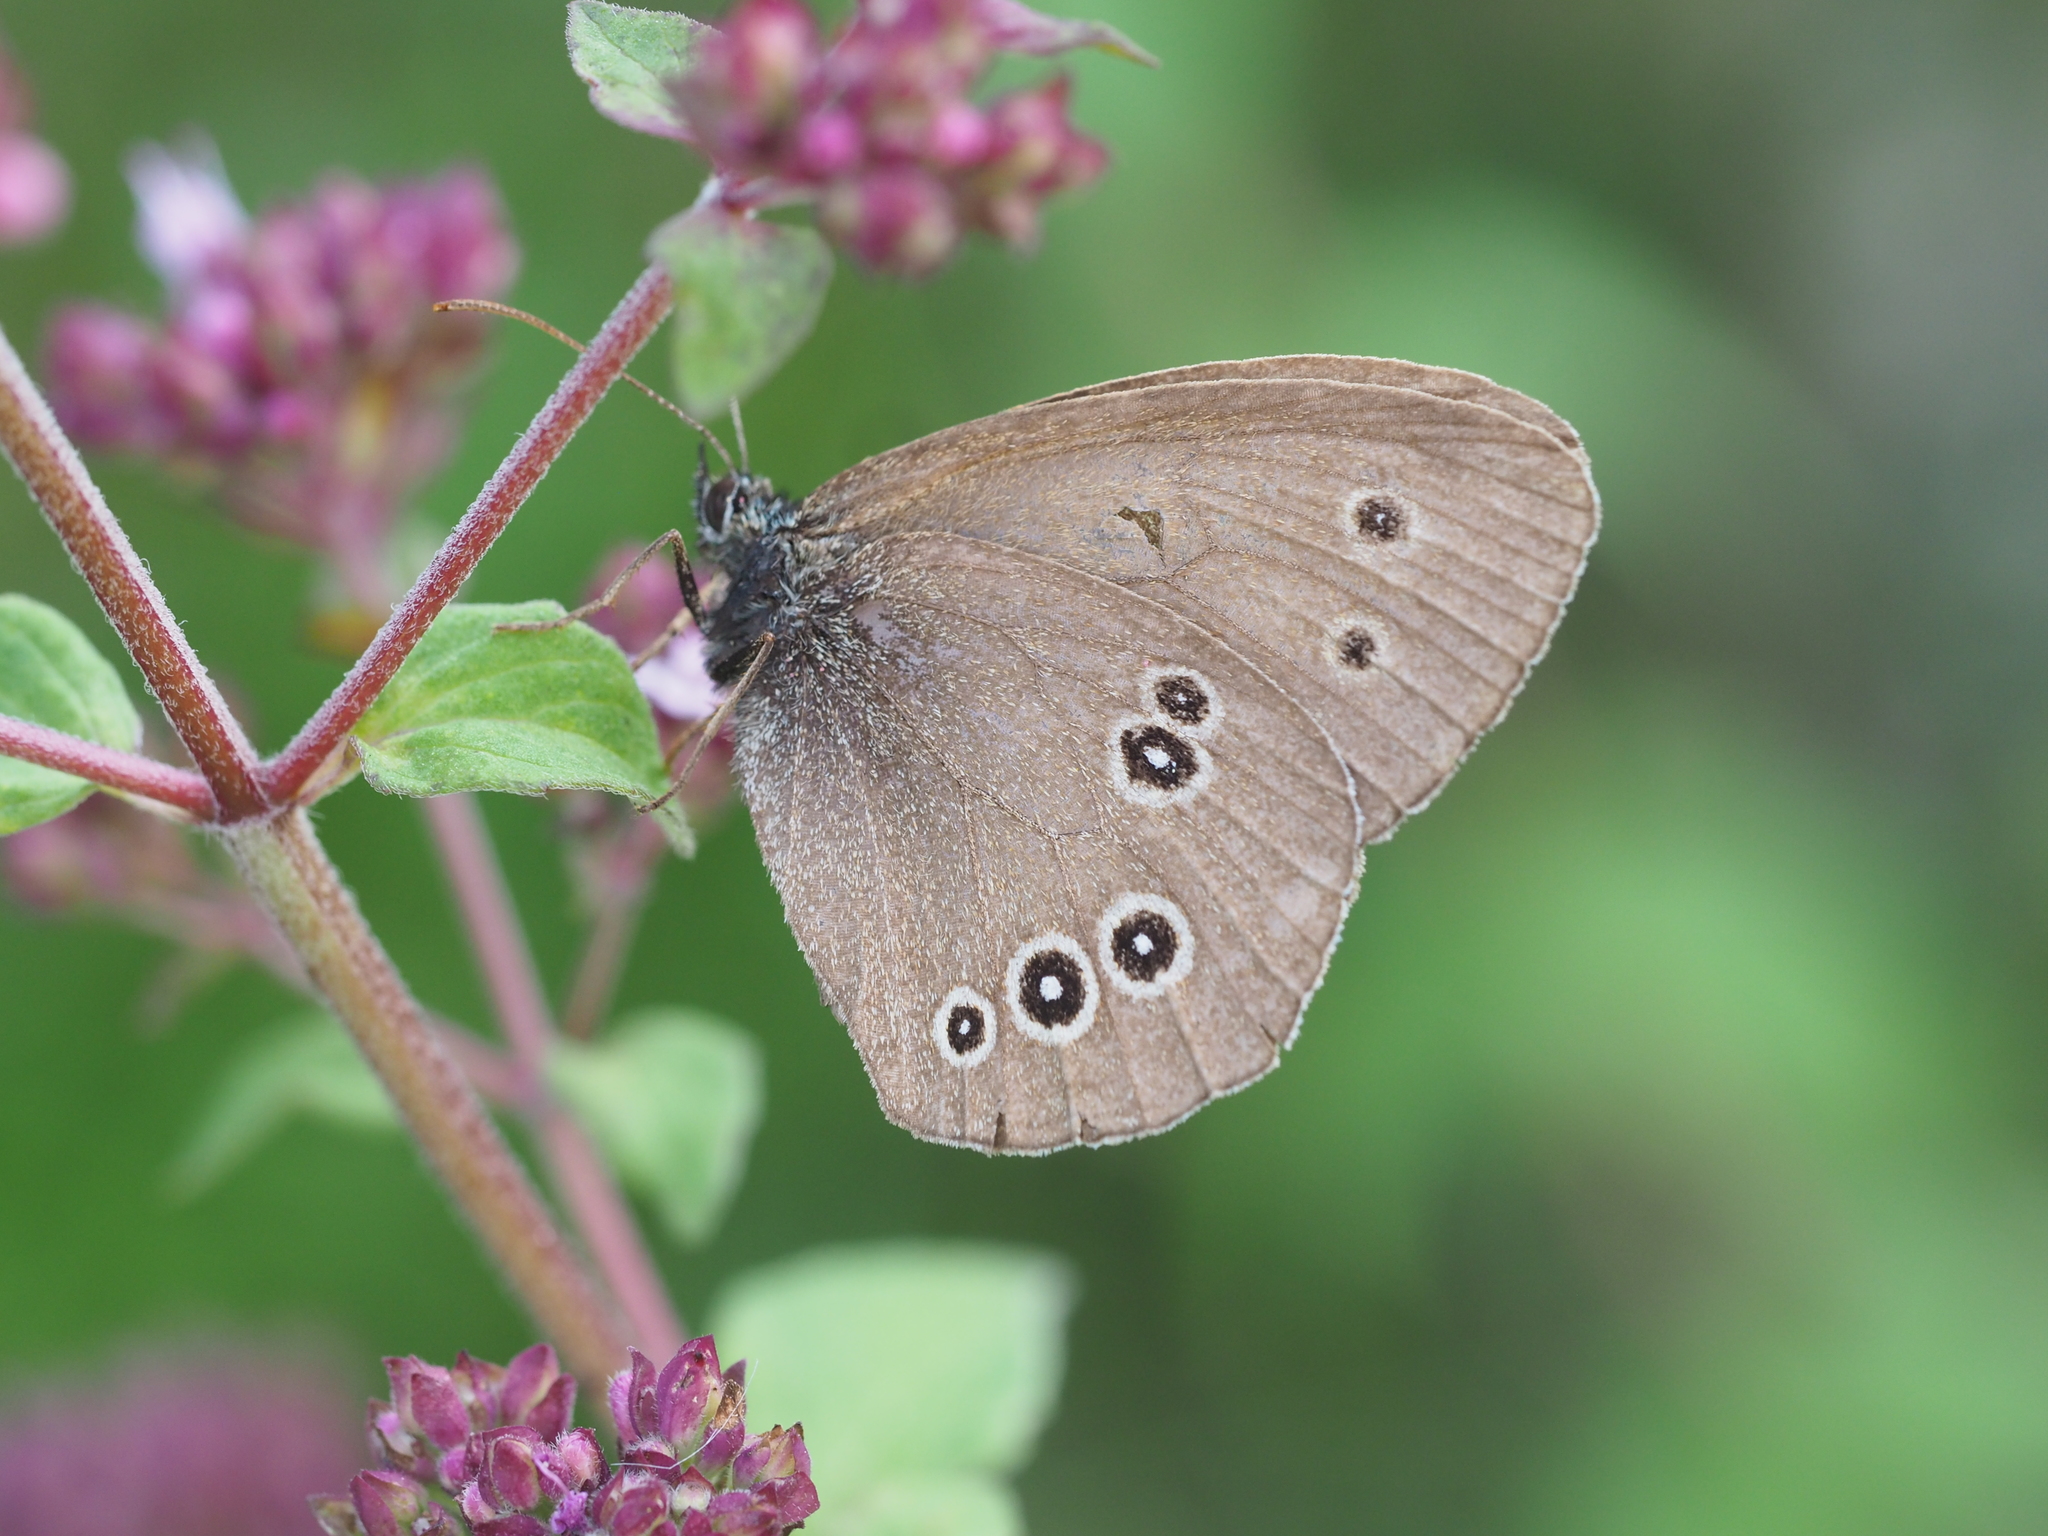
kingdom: Animalia
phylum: Arthropoda
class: Insecta
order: Lepidoptera
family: Nymphalidae
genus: Aphantopus
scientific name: Aphantopus hyperantus
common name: Ringlet
